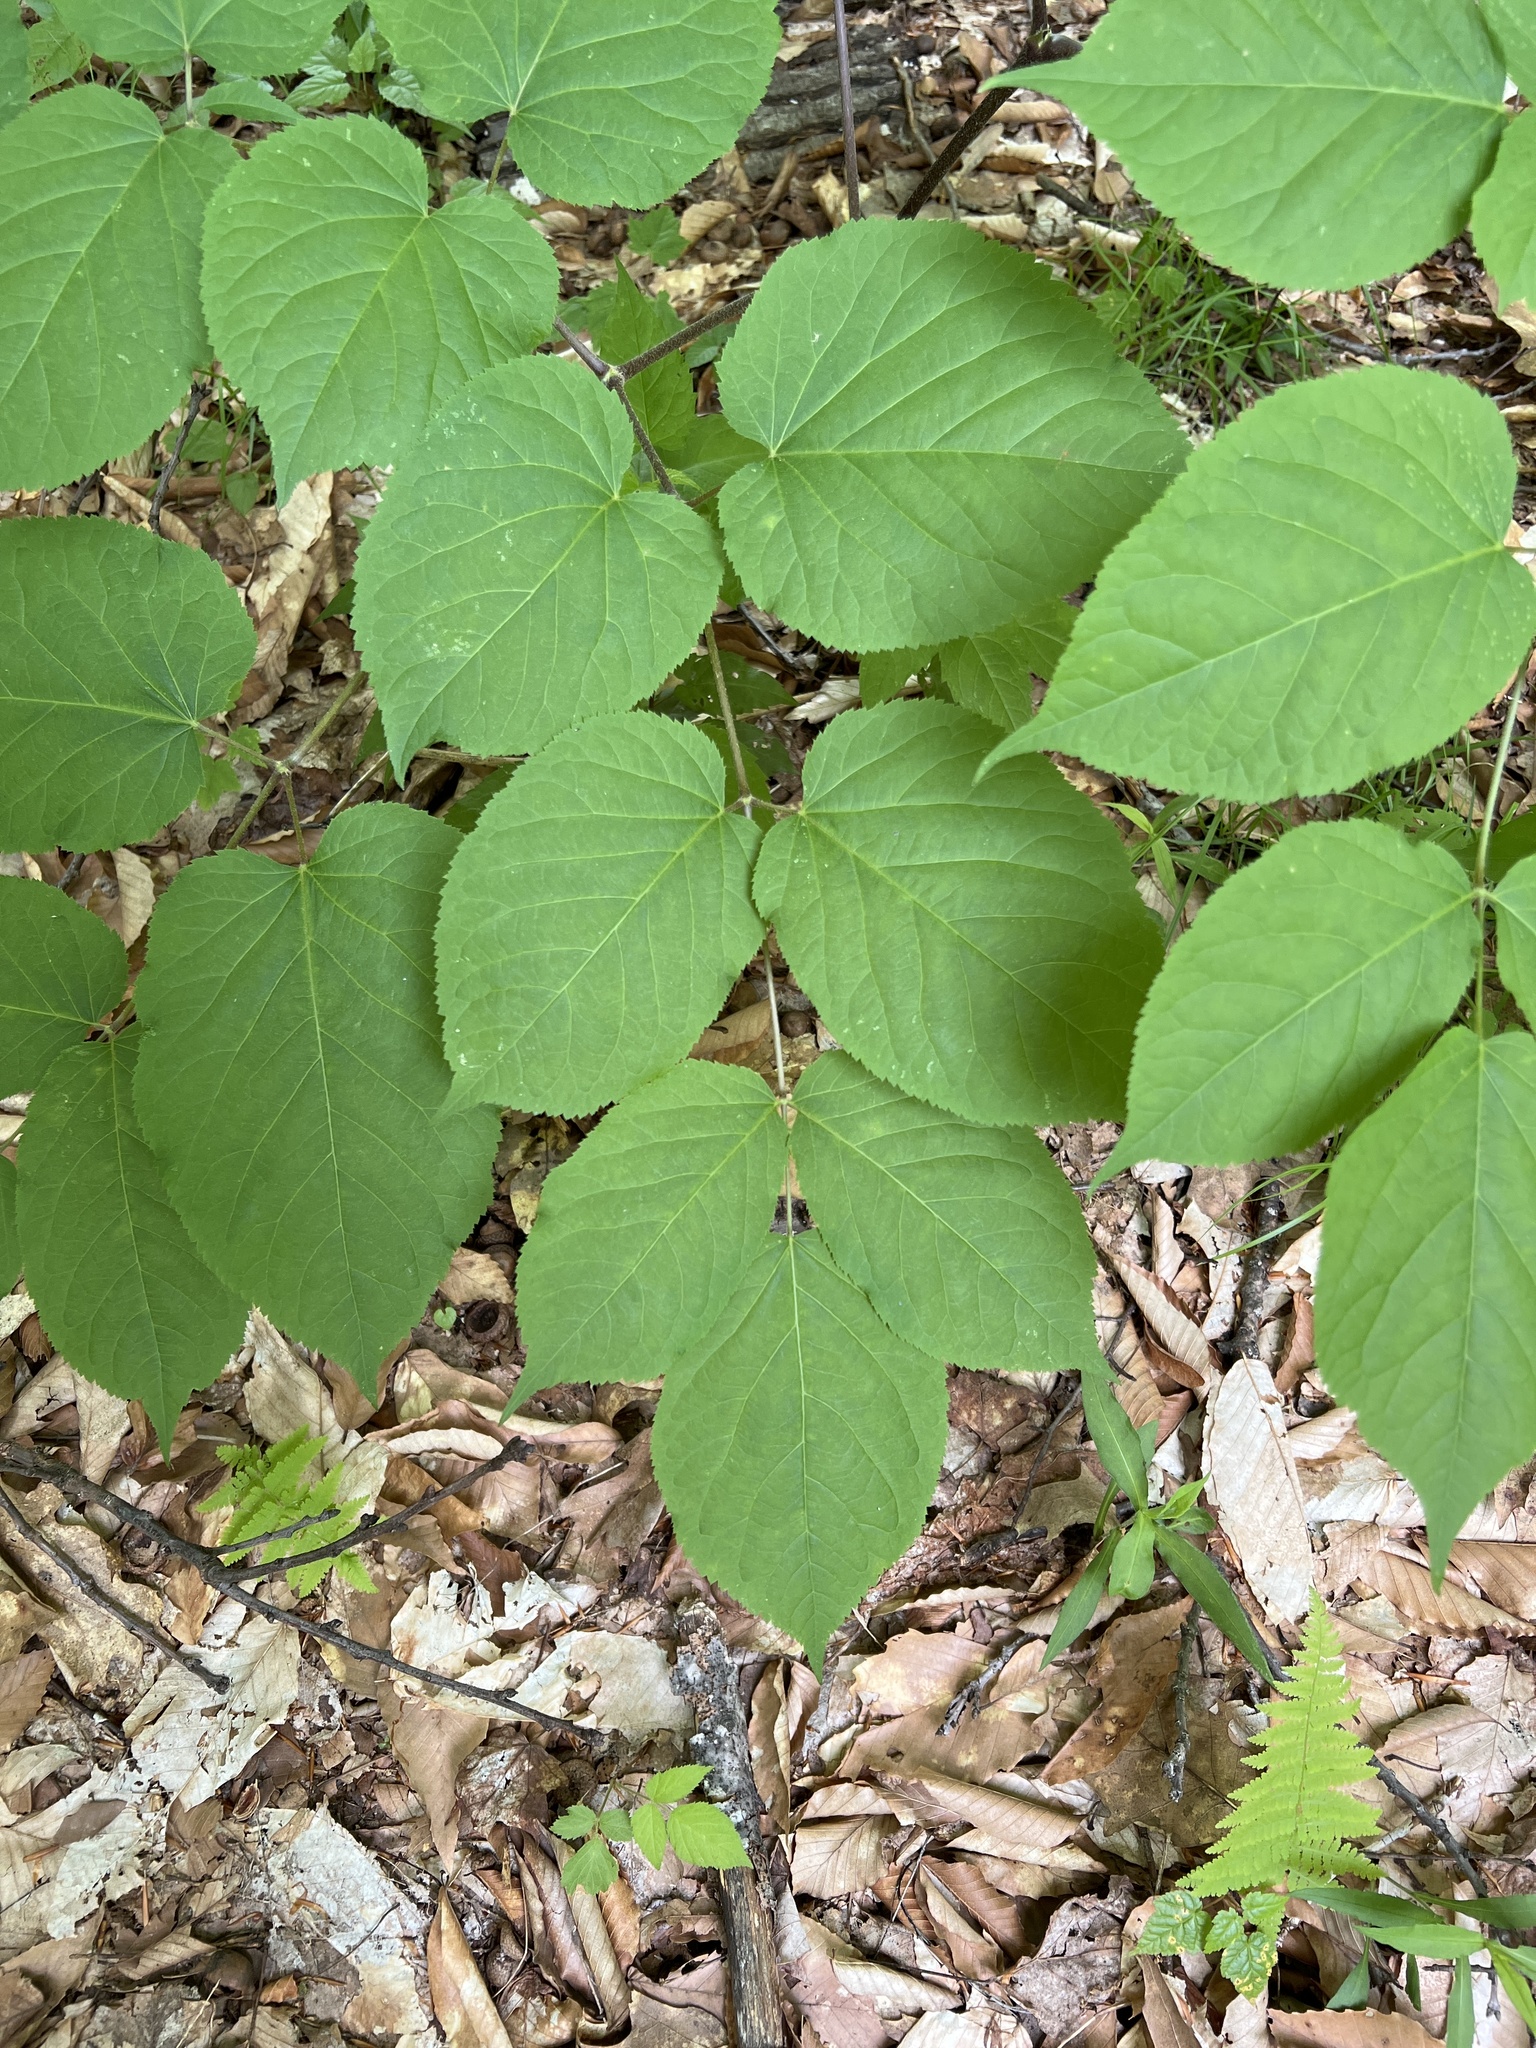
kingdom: Plantae
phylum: Tracheophyta
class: Magnoliopsida
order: Apiales
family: Araliaceae
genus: Aralia
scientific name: Aralia racemosa
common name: American-spikenard
